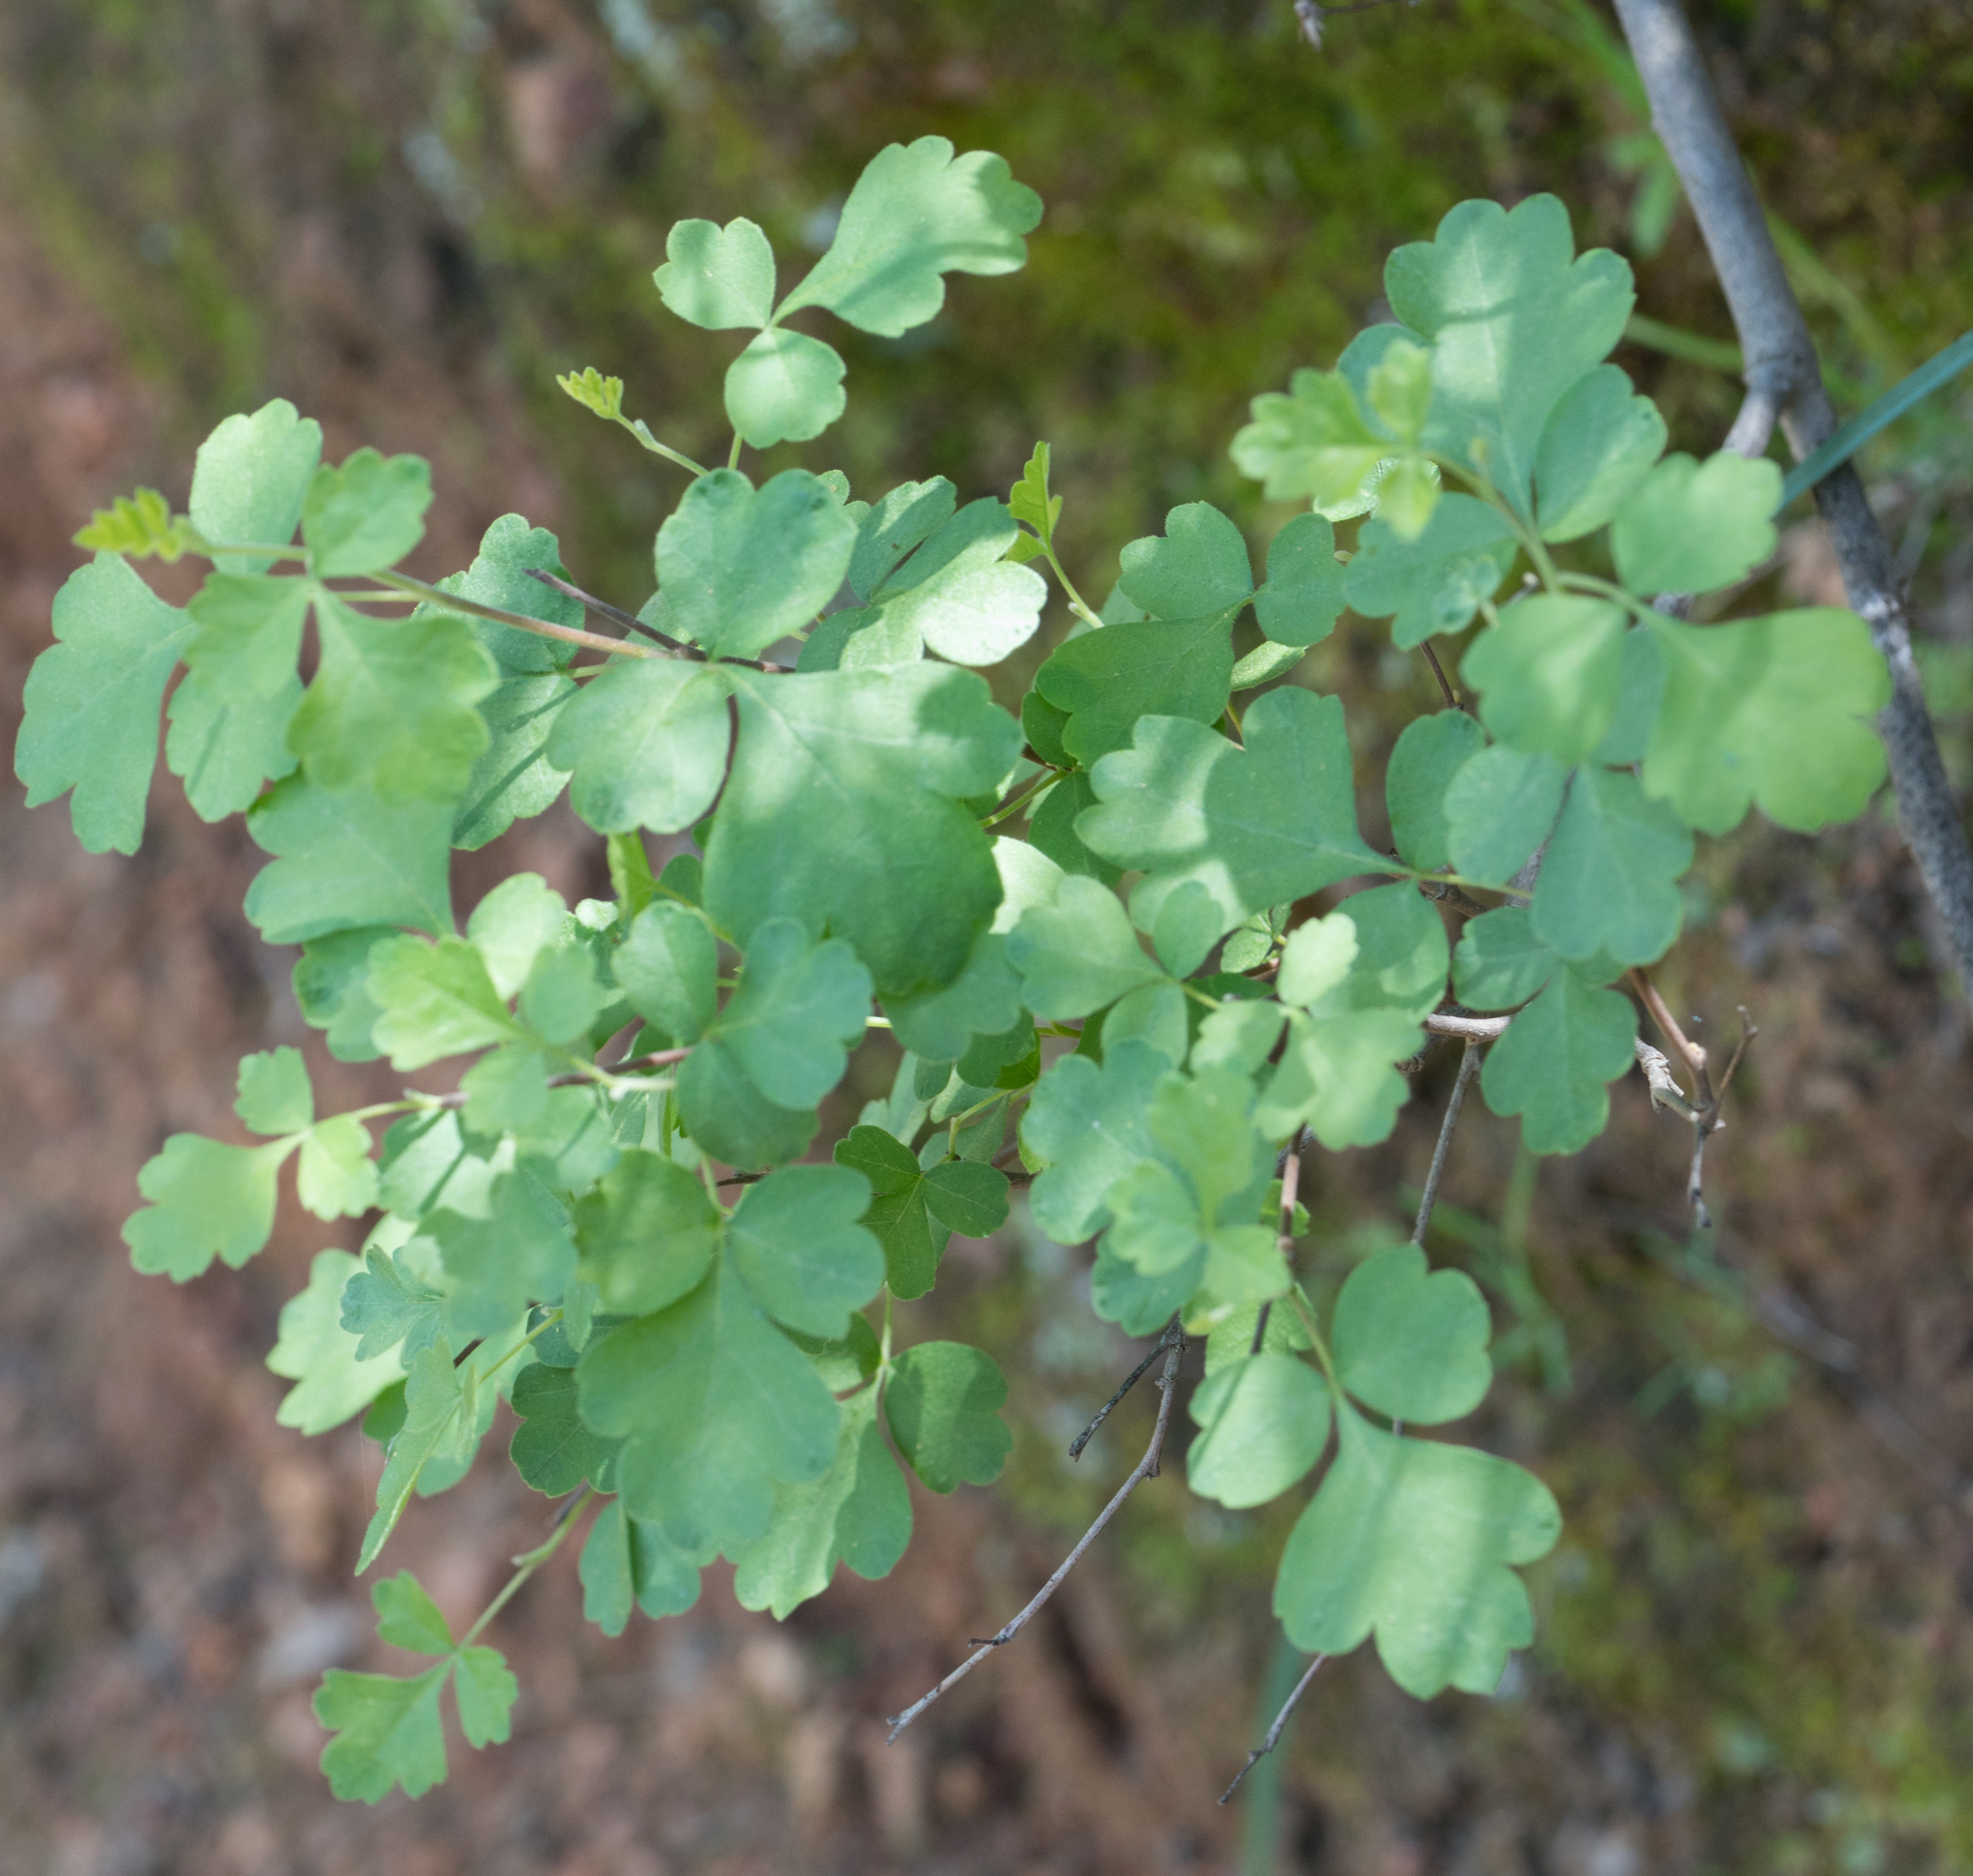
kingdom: Plantae
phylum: Tracheophyta
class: Magnoliopsida
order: Sapindales
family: Anacardiaceae
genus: Rhus
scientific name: Rhus aromatica
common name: Aromatic sumac
